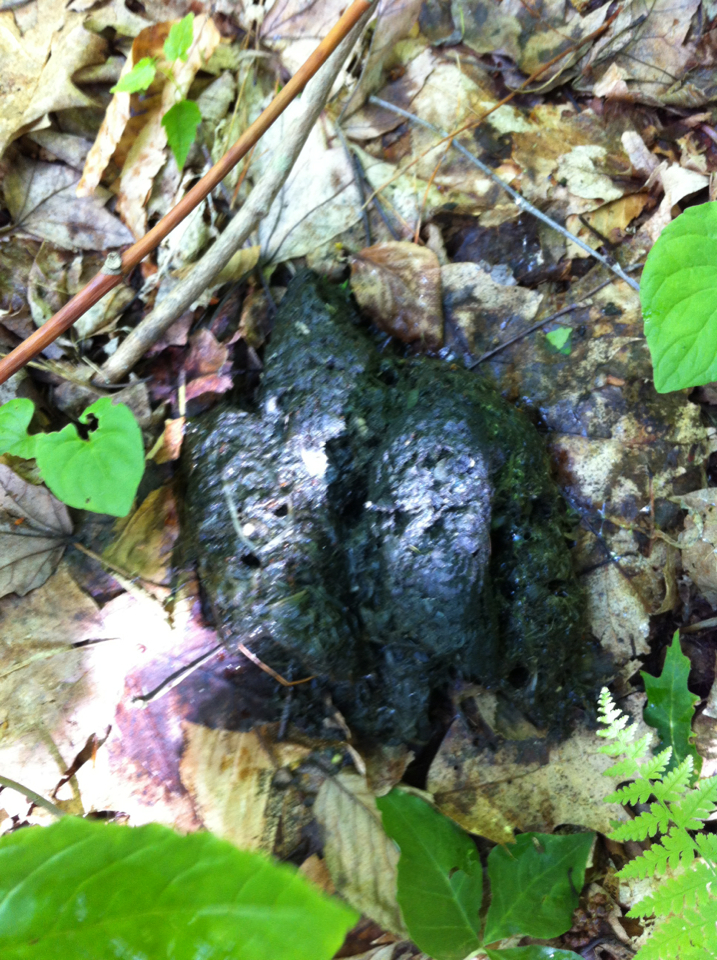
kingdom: Animalia
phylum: Chordata
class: Mammalia
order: Carnivora
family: Ursidae
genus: Ursus
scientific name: Ursus americanus
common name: American black bear
